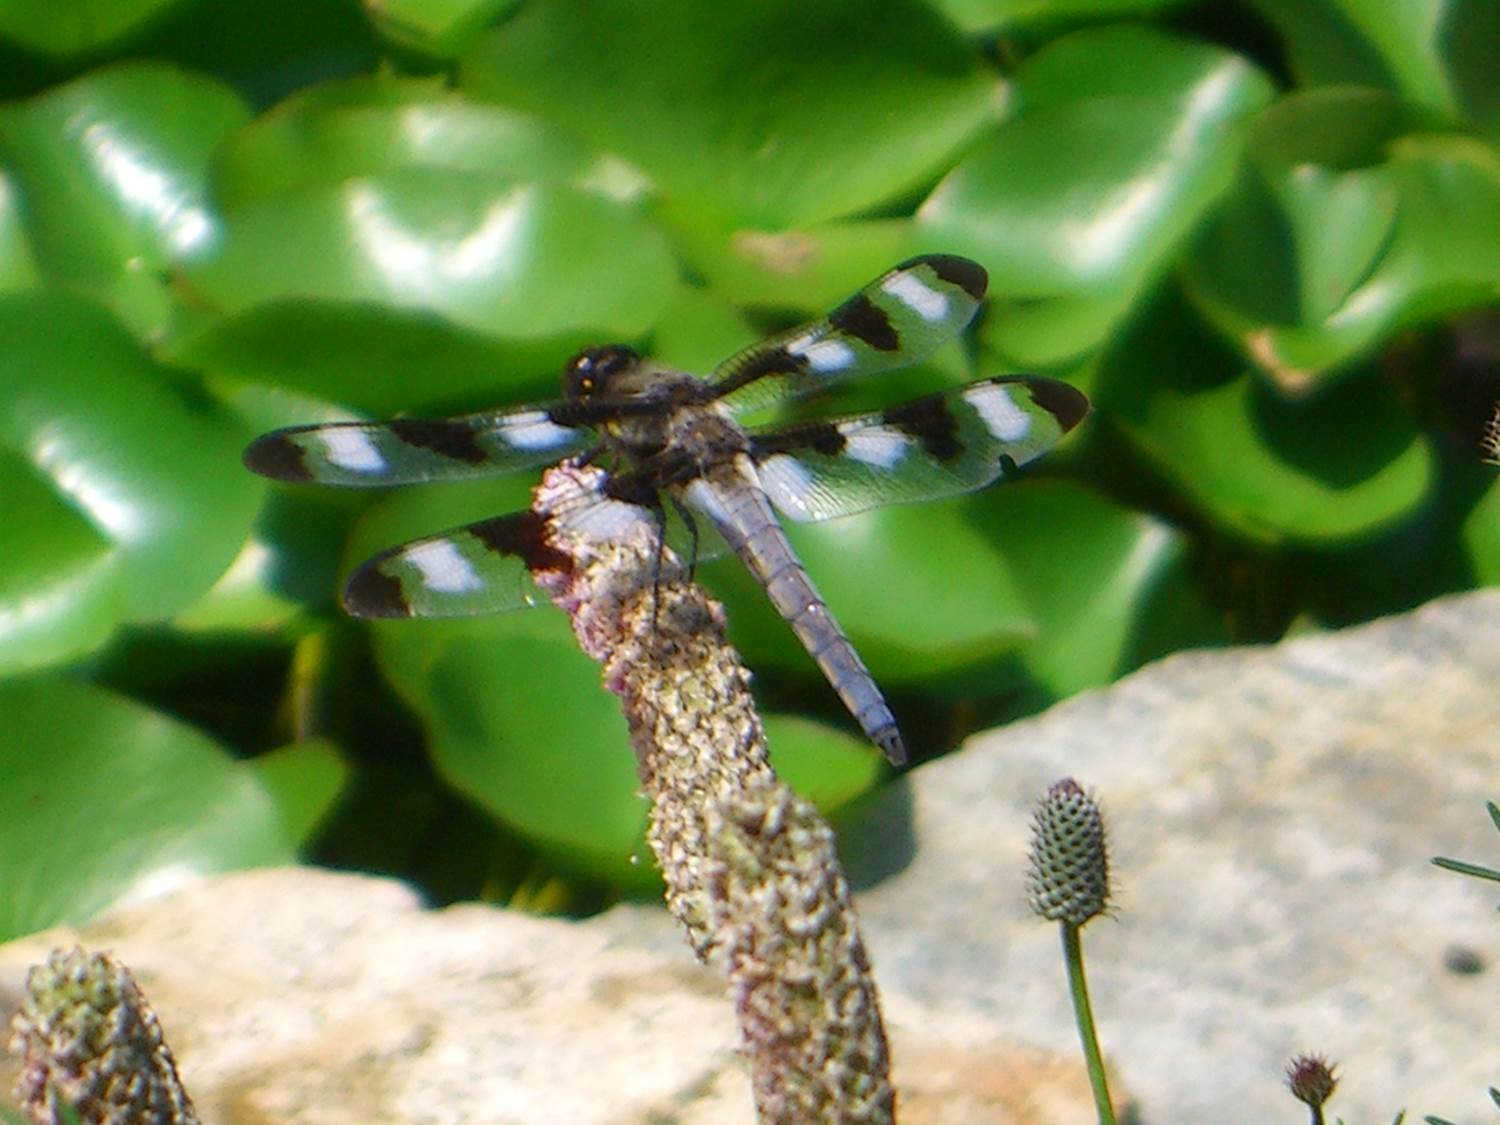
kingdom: Animalia
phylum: Arthropoda
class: Insecta
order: Odonata
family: Libellulidae
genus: Libellula
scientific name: Libellula pulchella
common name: Twelve-spotted skimmer
